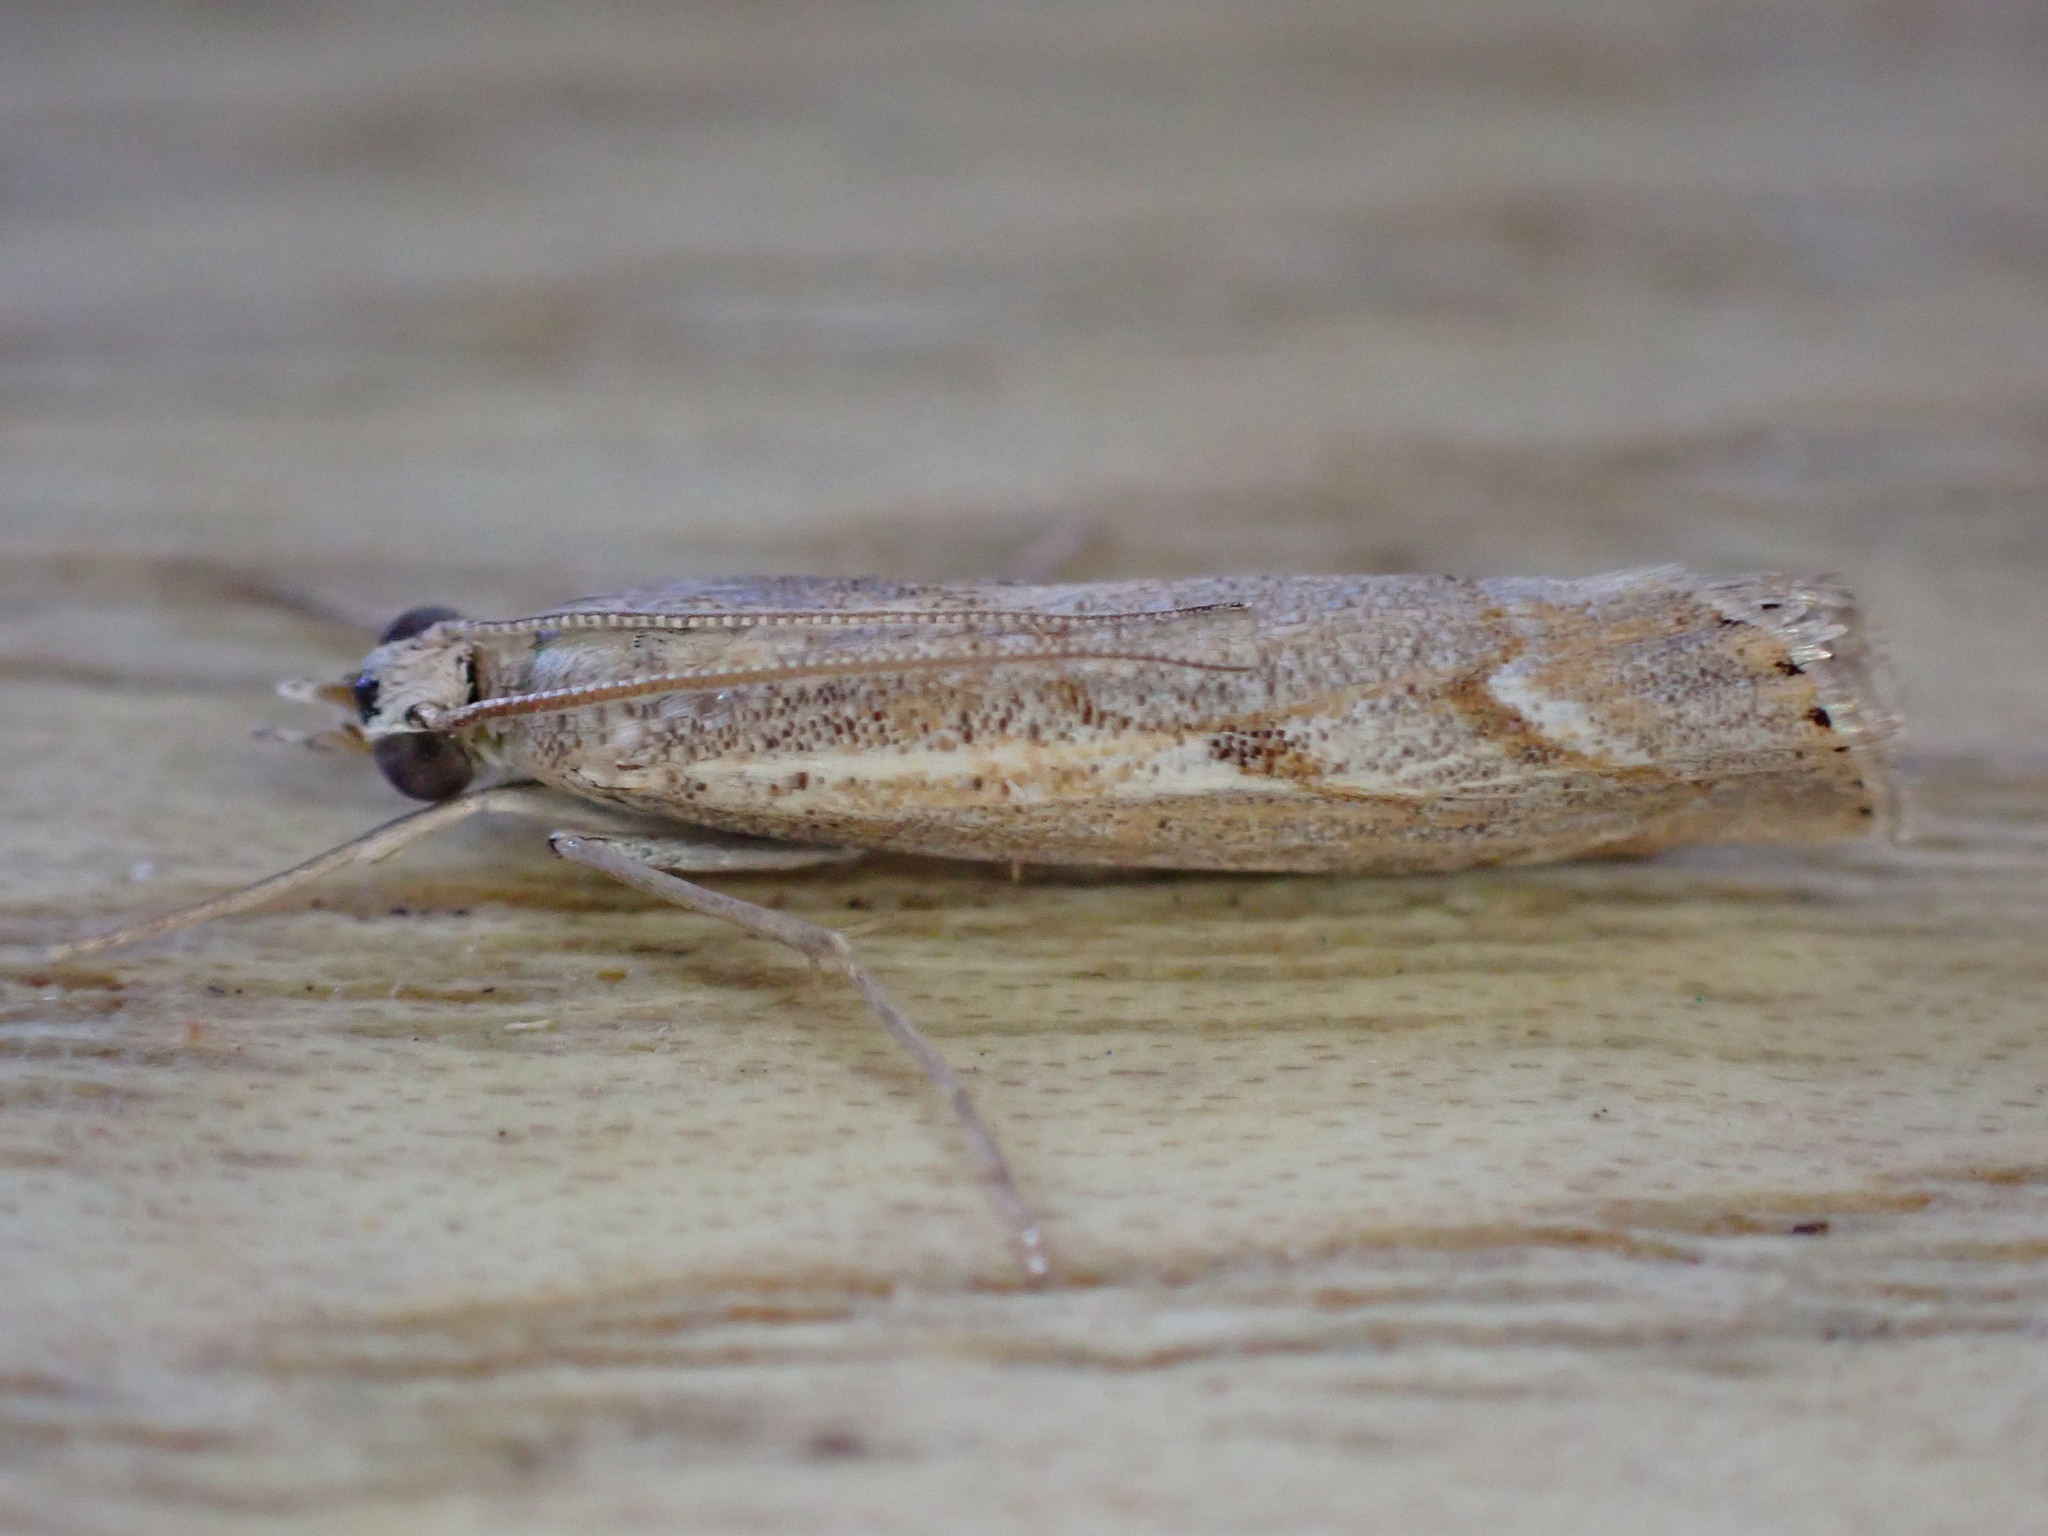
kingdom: Animalia
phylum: Arthropoda
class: Insecta
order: Lepidoptera
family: Crambidae
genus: Agriphila
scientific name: Agriphila geniculea
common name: Elbow-stripe grass-veneer
